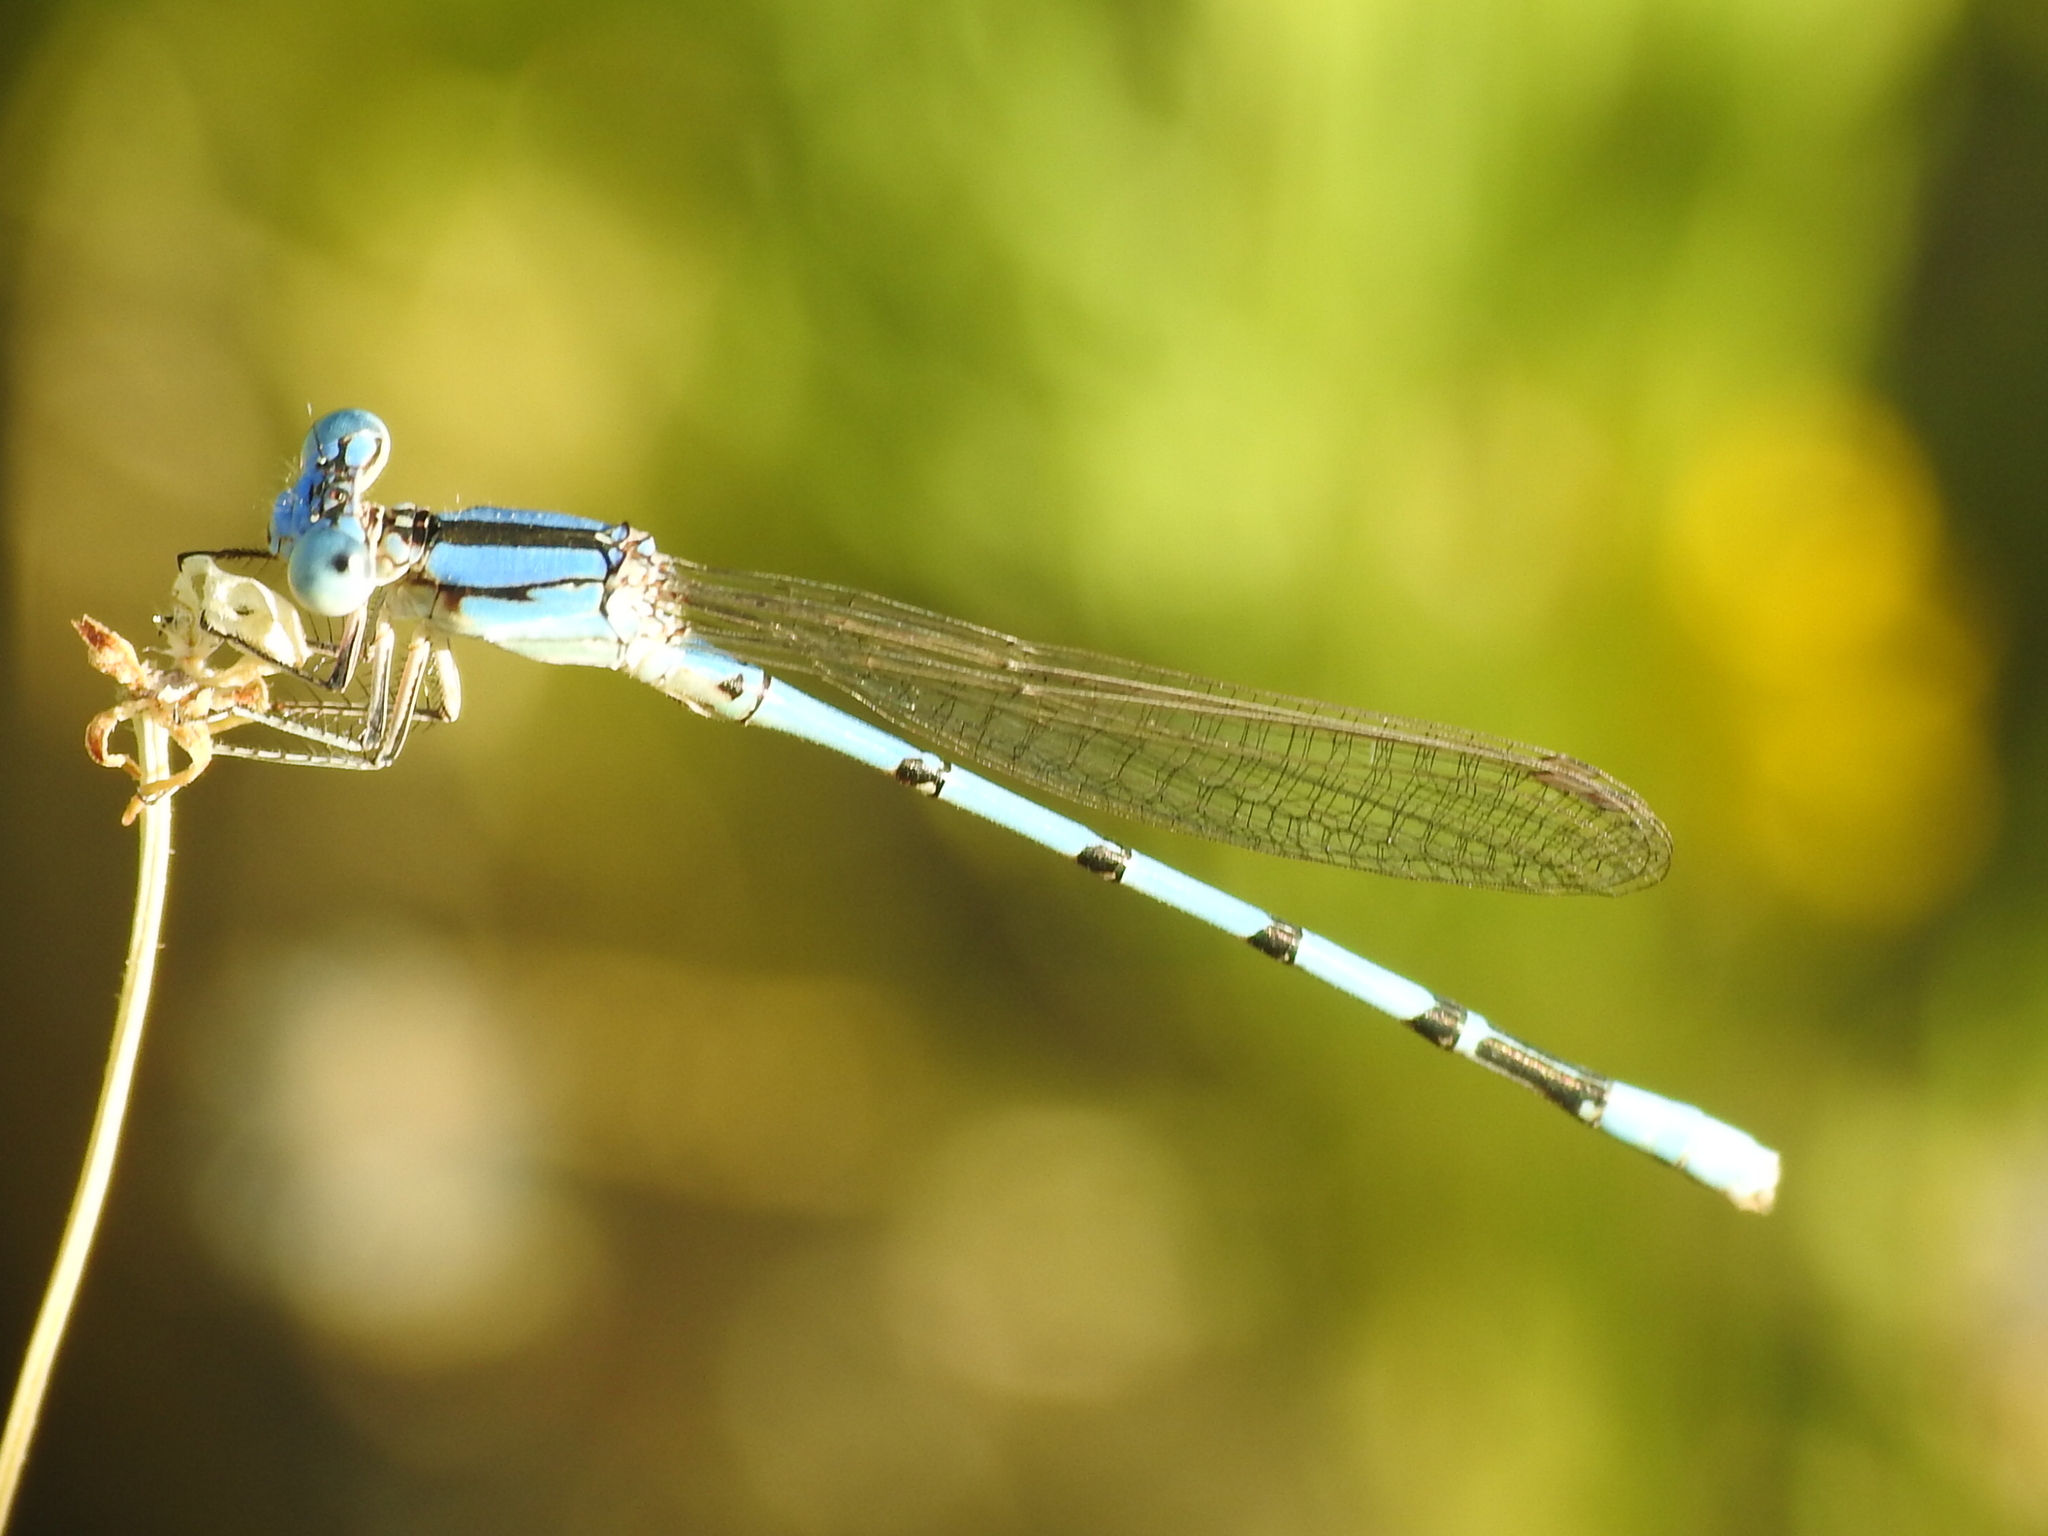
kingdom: Animalia
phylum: Arthropoda
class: Insecta
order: Odonata
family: Coenagrionidae
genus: Argia
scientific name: Argia nahuana
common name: Aztec dancer
